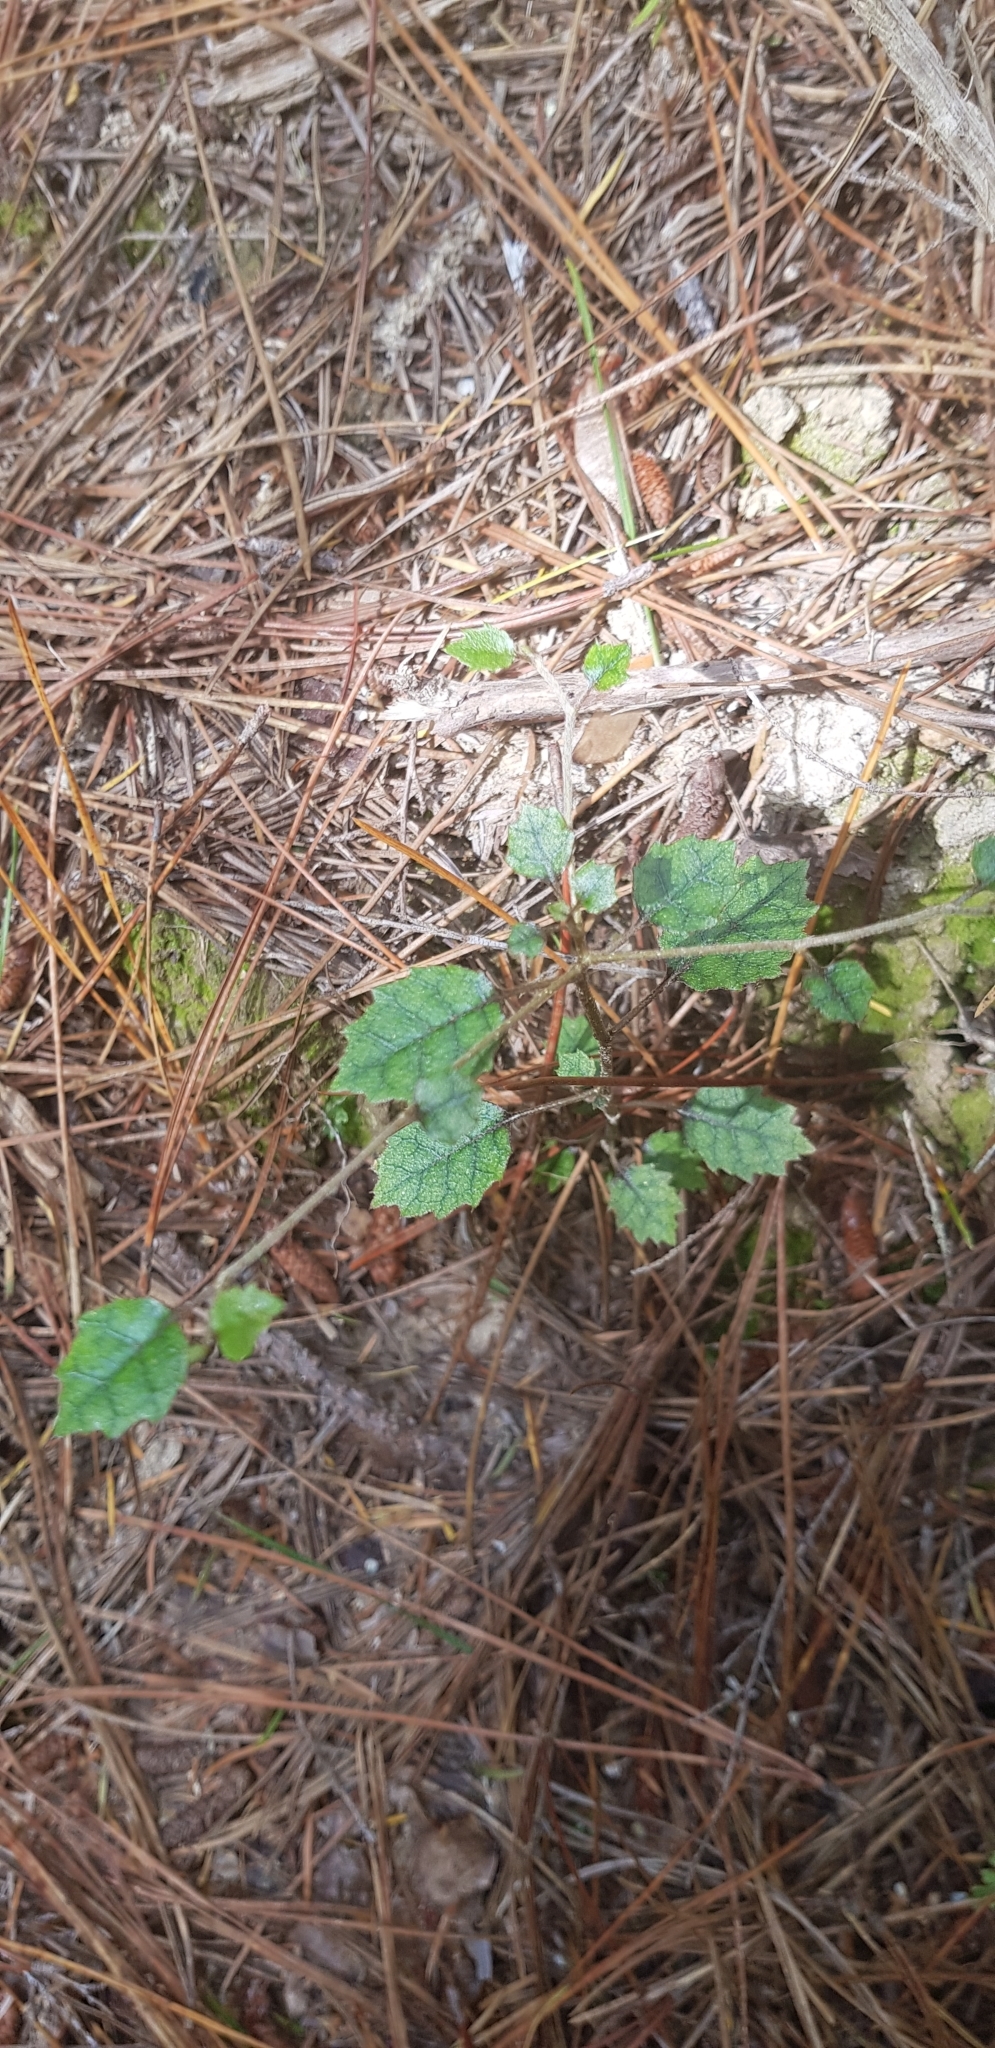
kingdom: Plantae
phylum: Tracheophyta
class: Magnoliopsida
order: Asterales
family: Rousseaceae
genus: Carpodetus
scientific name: Carpodetus serratus
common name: White mapau
